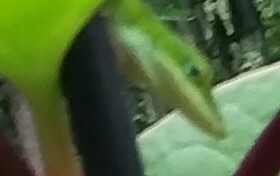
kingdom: Animalia
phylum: Chordata
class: Squamata
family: Dactyloidae
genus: Anolis
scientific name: Anolis carolinensis
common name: Green anole
